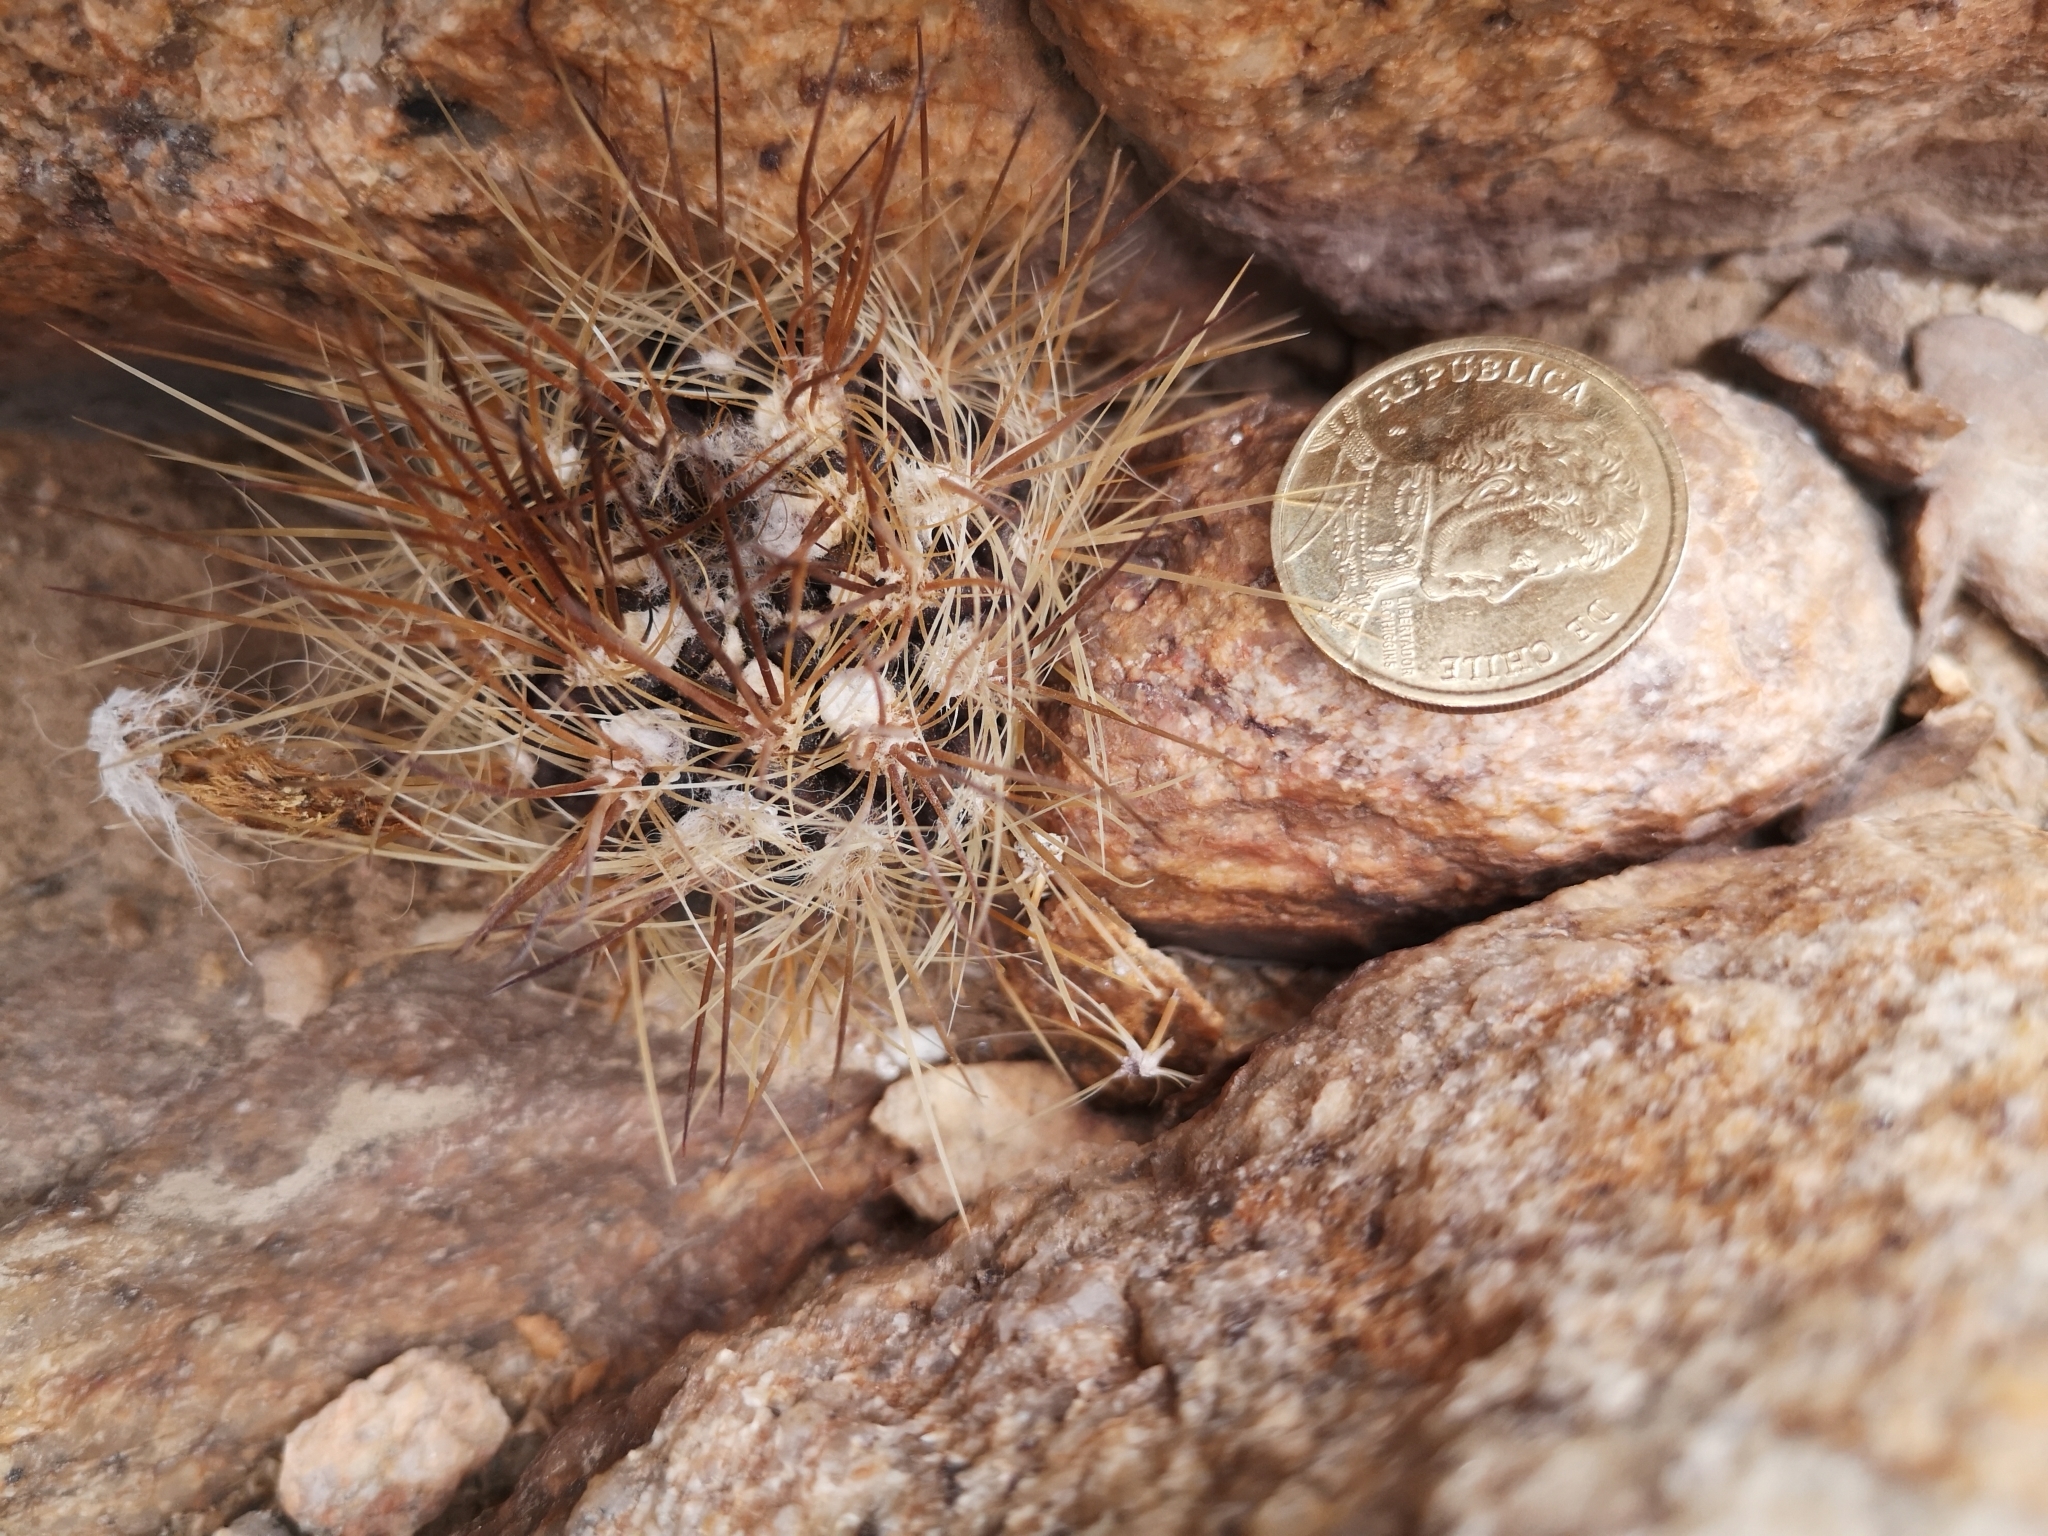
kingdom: Plantae
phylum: Tracheophyta
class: Magnoliopsida
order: Caryophyllales
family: Cactaceae
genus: Eriosyce
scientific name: Eriosyce taltalensis
